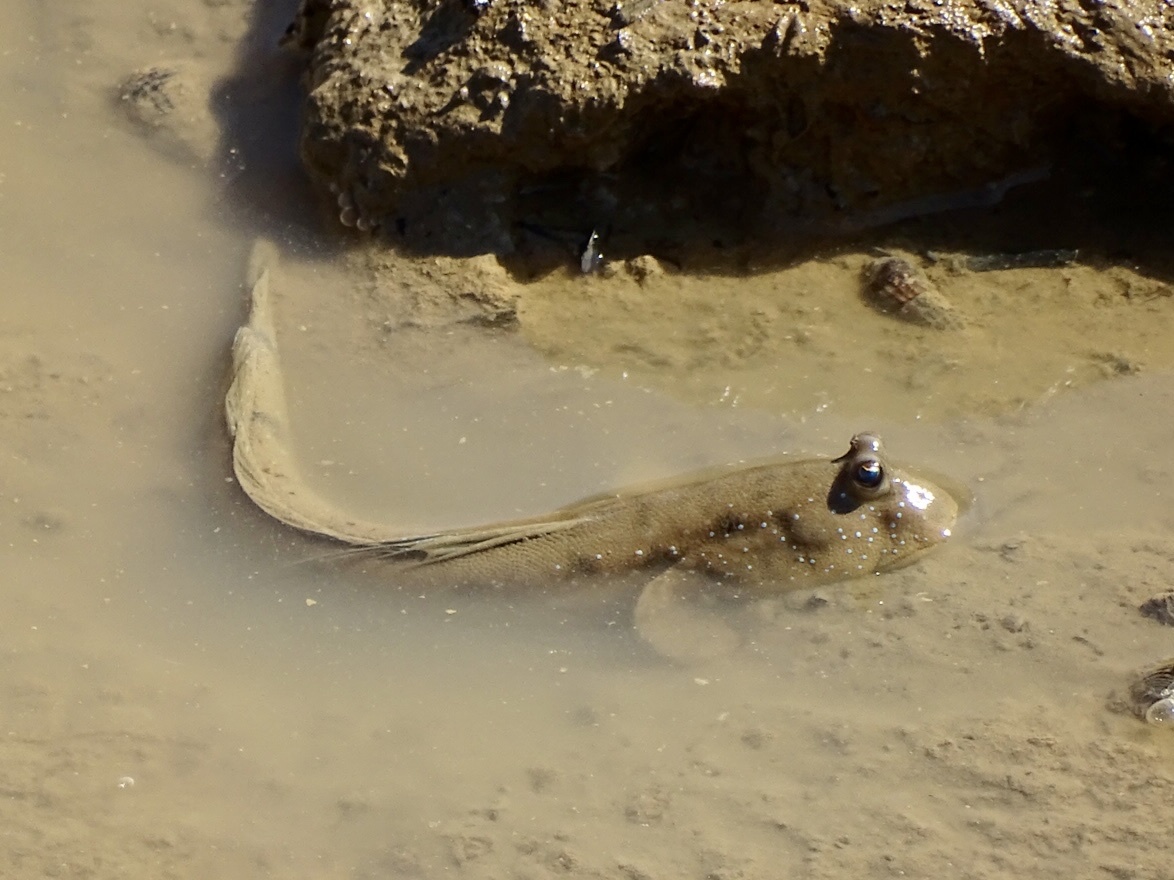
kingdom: Animalia
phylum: Chordata
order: Perciformes
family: Gobiidae
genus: Boleophthalmus
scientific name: Boleophthalmus pectinirostris
